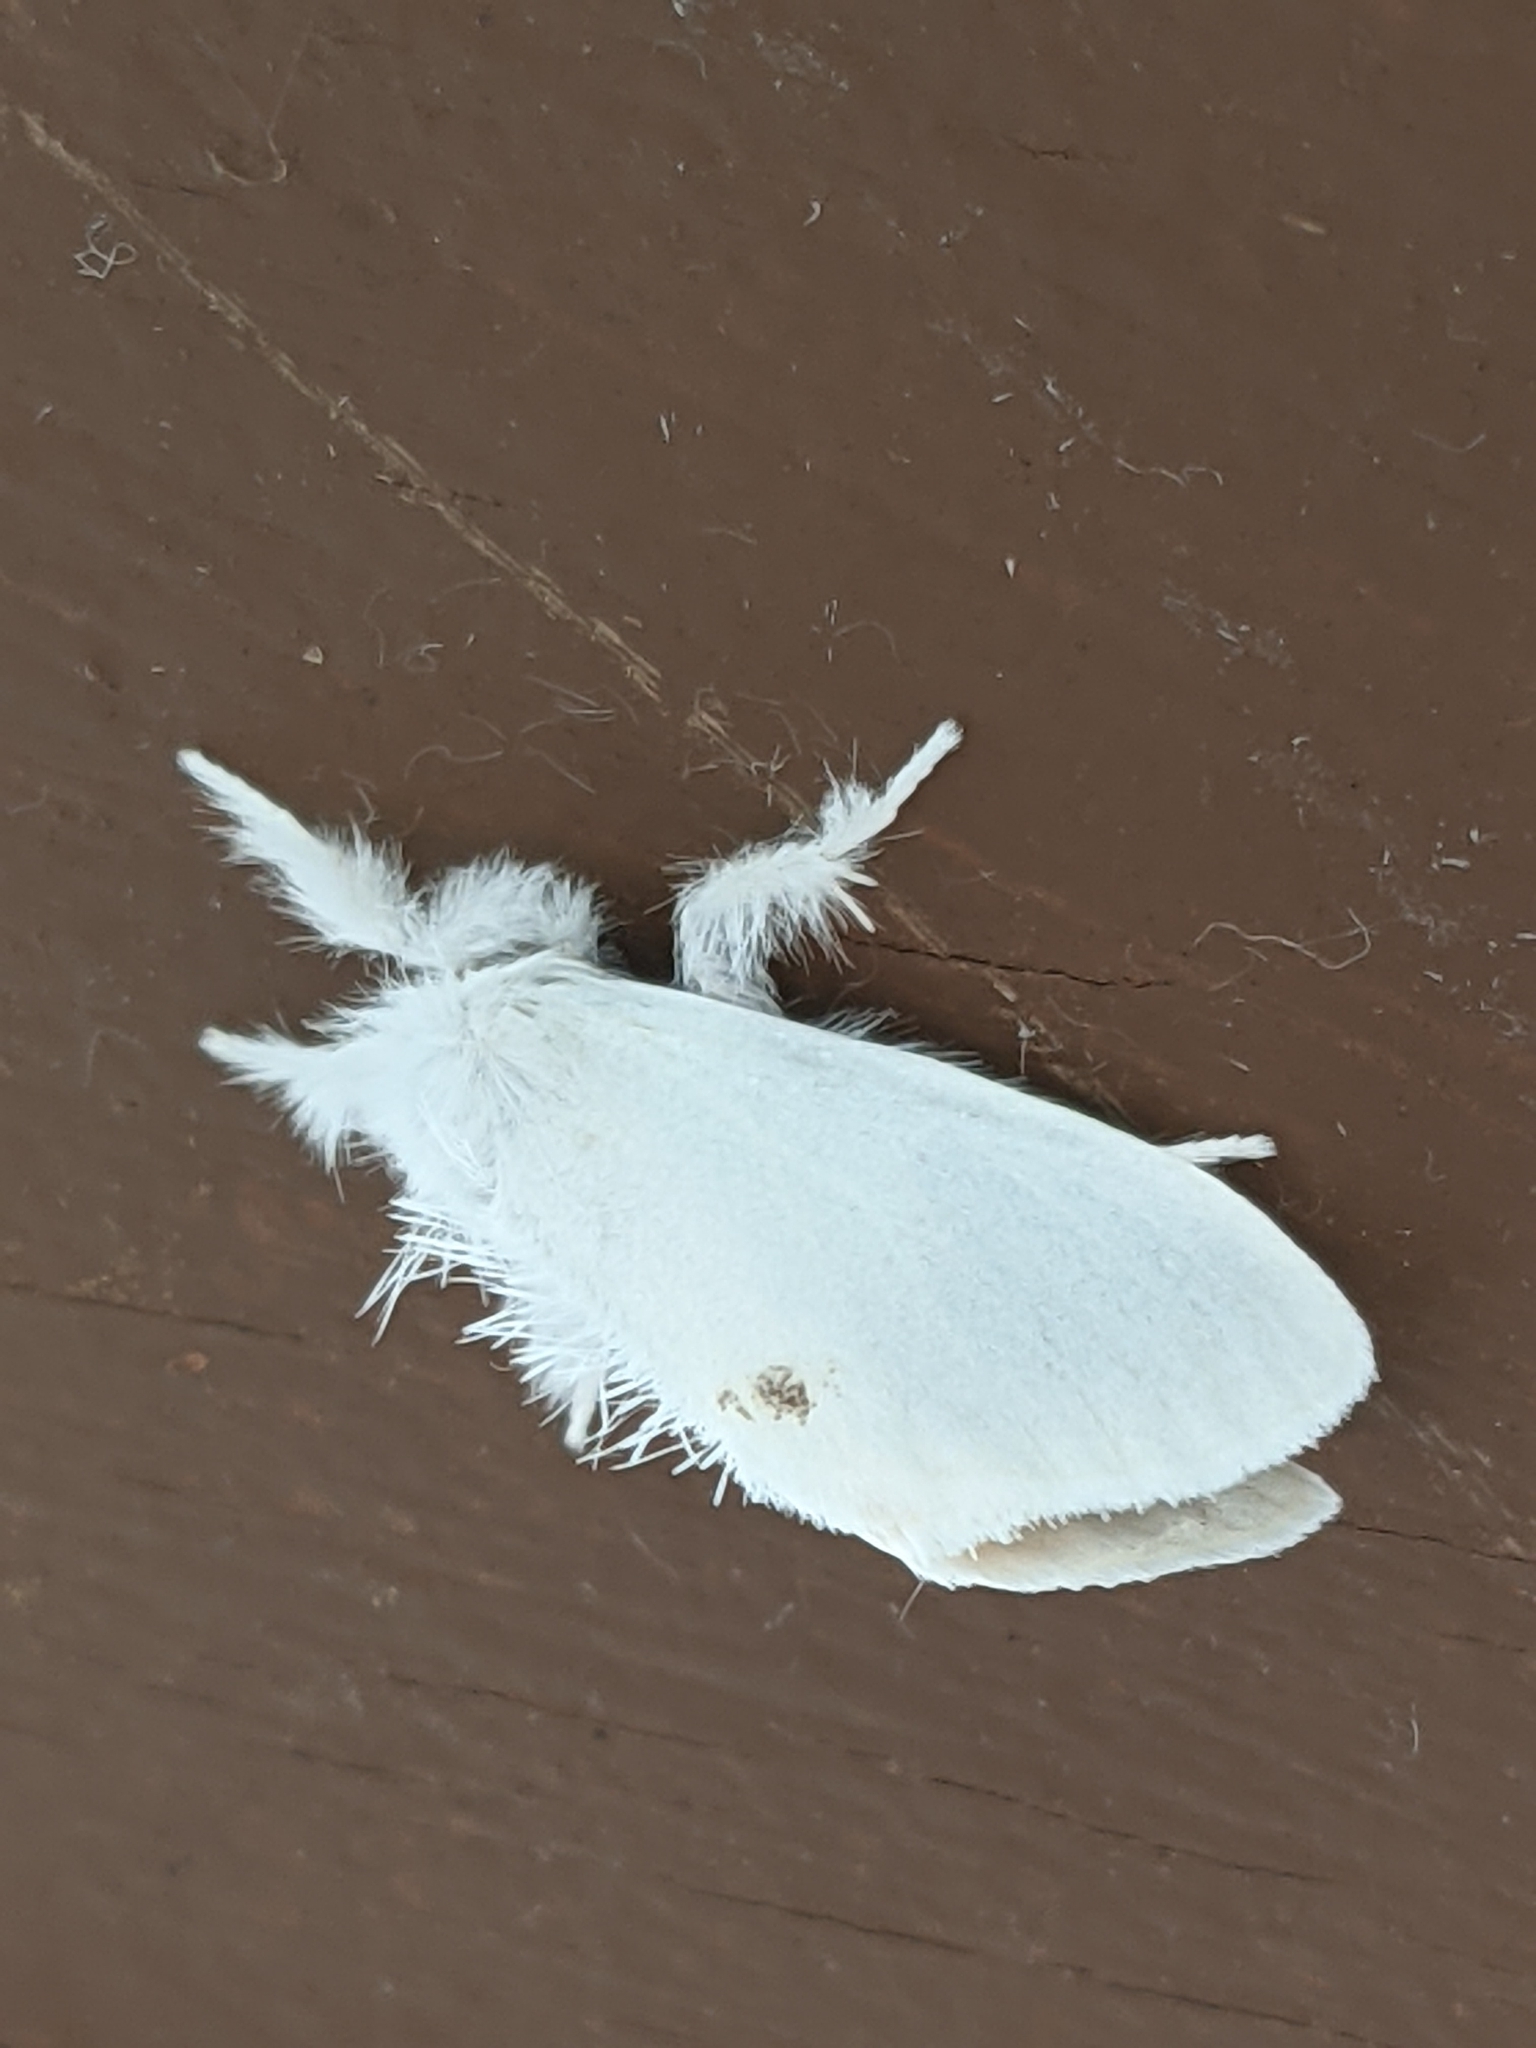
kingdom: Animalia
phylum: Arthropoda
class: Insecta
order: Lepidoptera
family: Erebidae
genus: Sphrageidus
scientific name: Sphrageidus similis
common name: Yellow-tail
